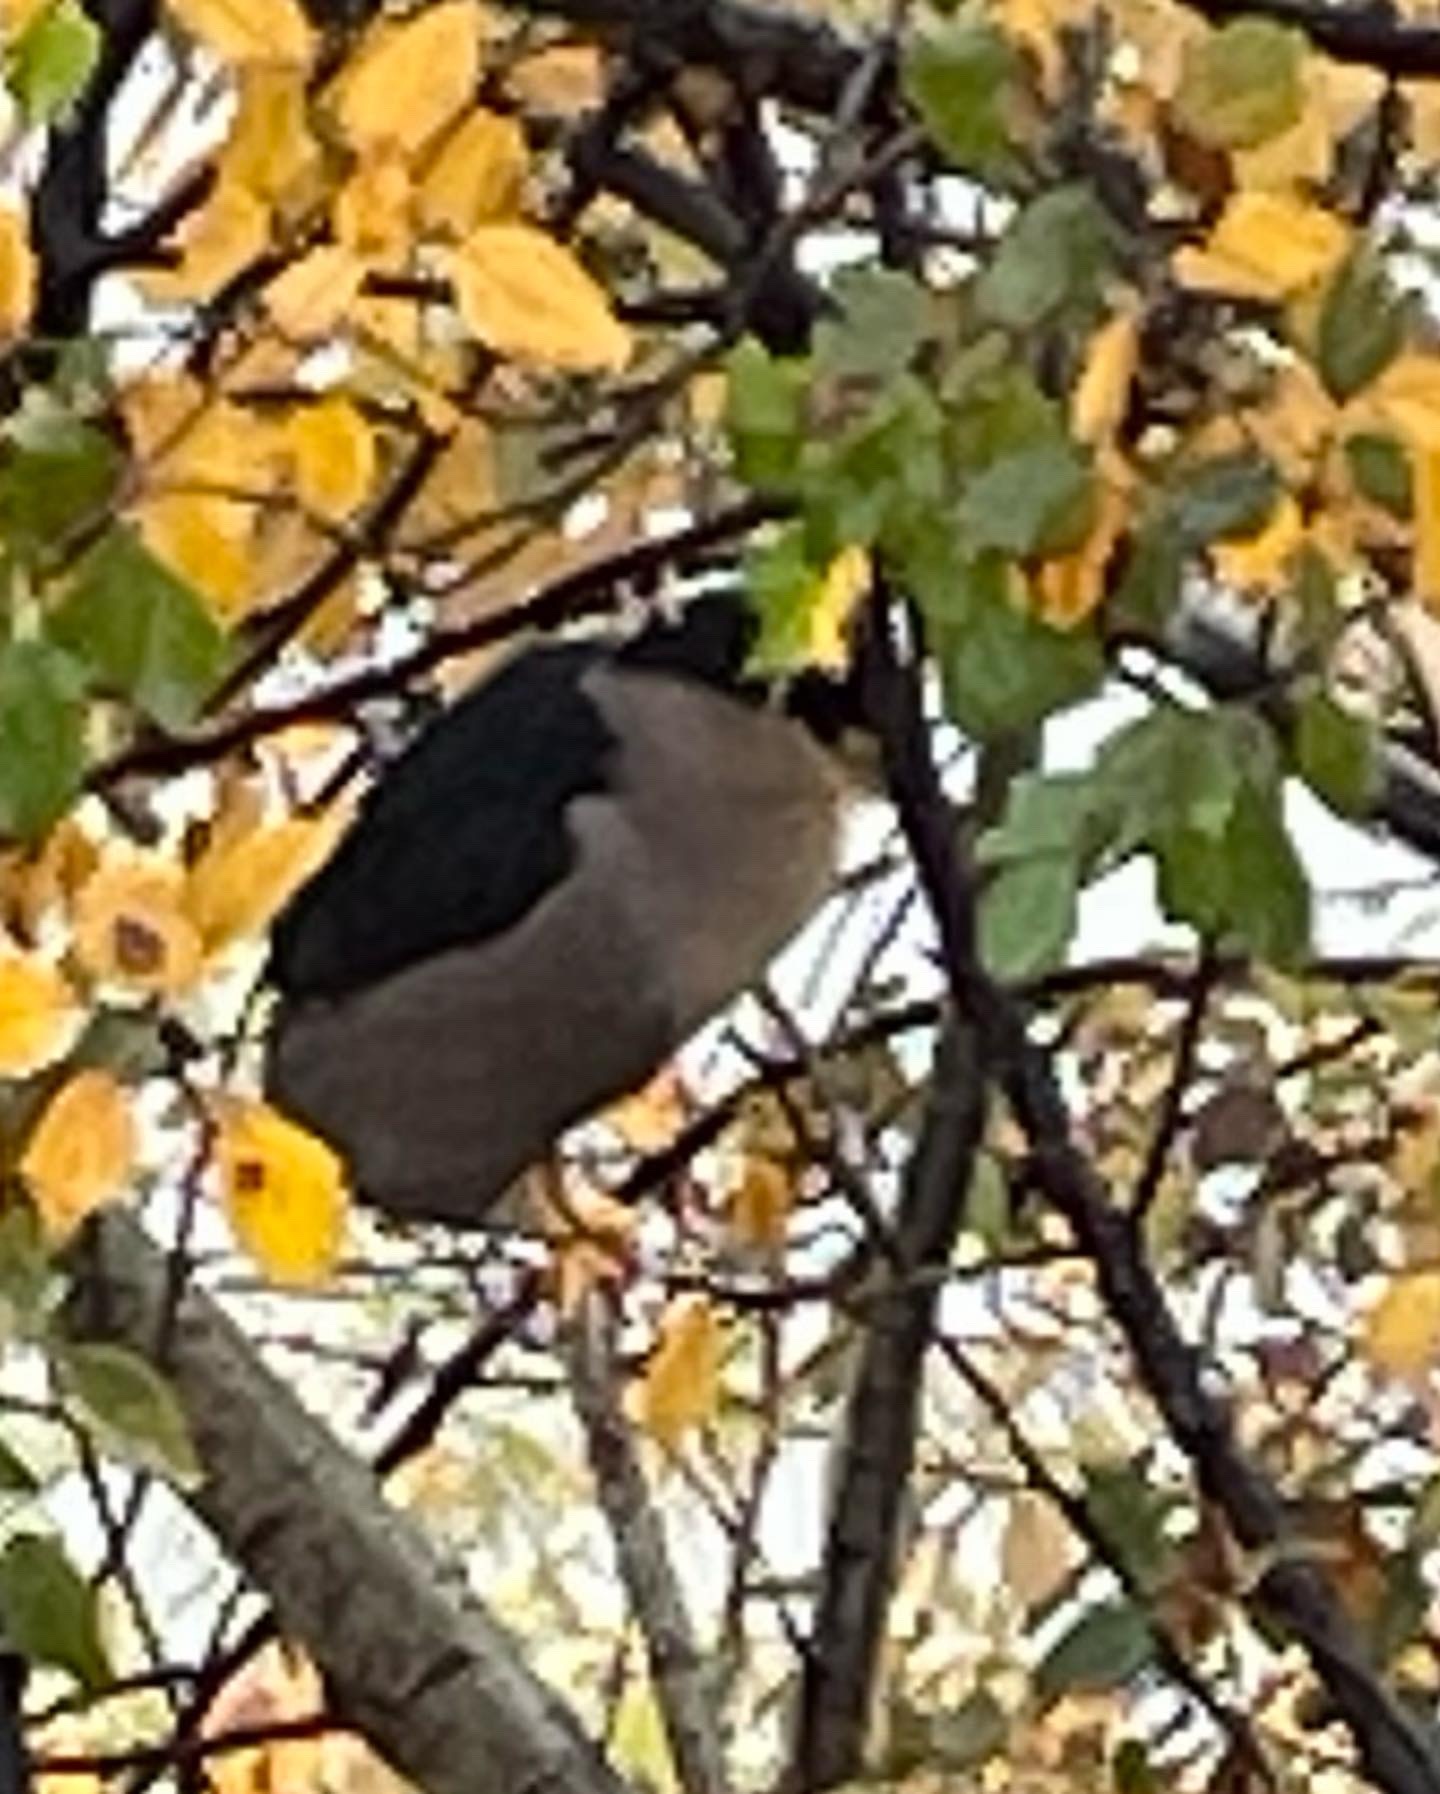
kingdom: Animalia
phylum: Chordata
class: Aves
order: Pelecaniformes
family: Ardeidae
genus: Nycticorax
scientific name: Nycticorax nycticorax
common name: Black-crowned night heron
